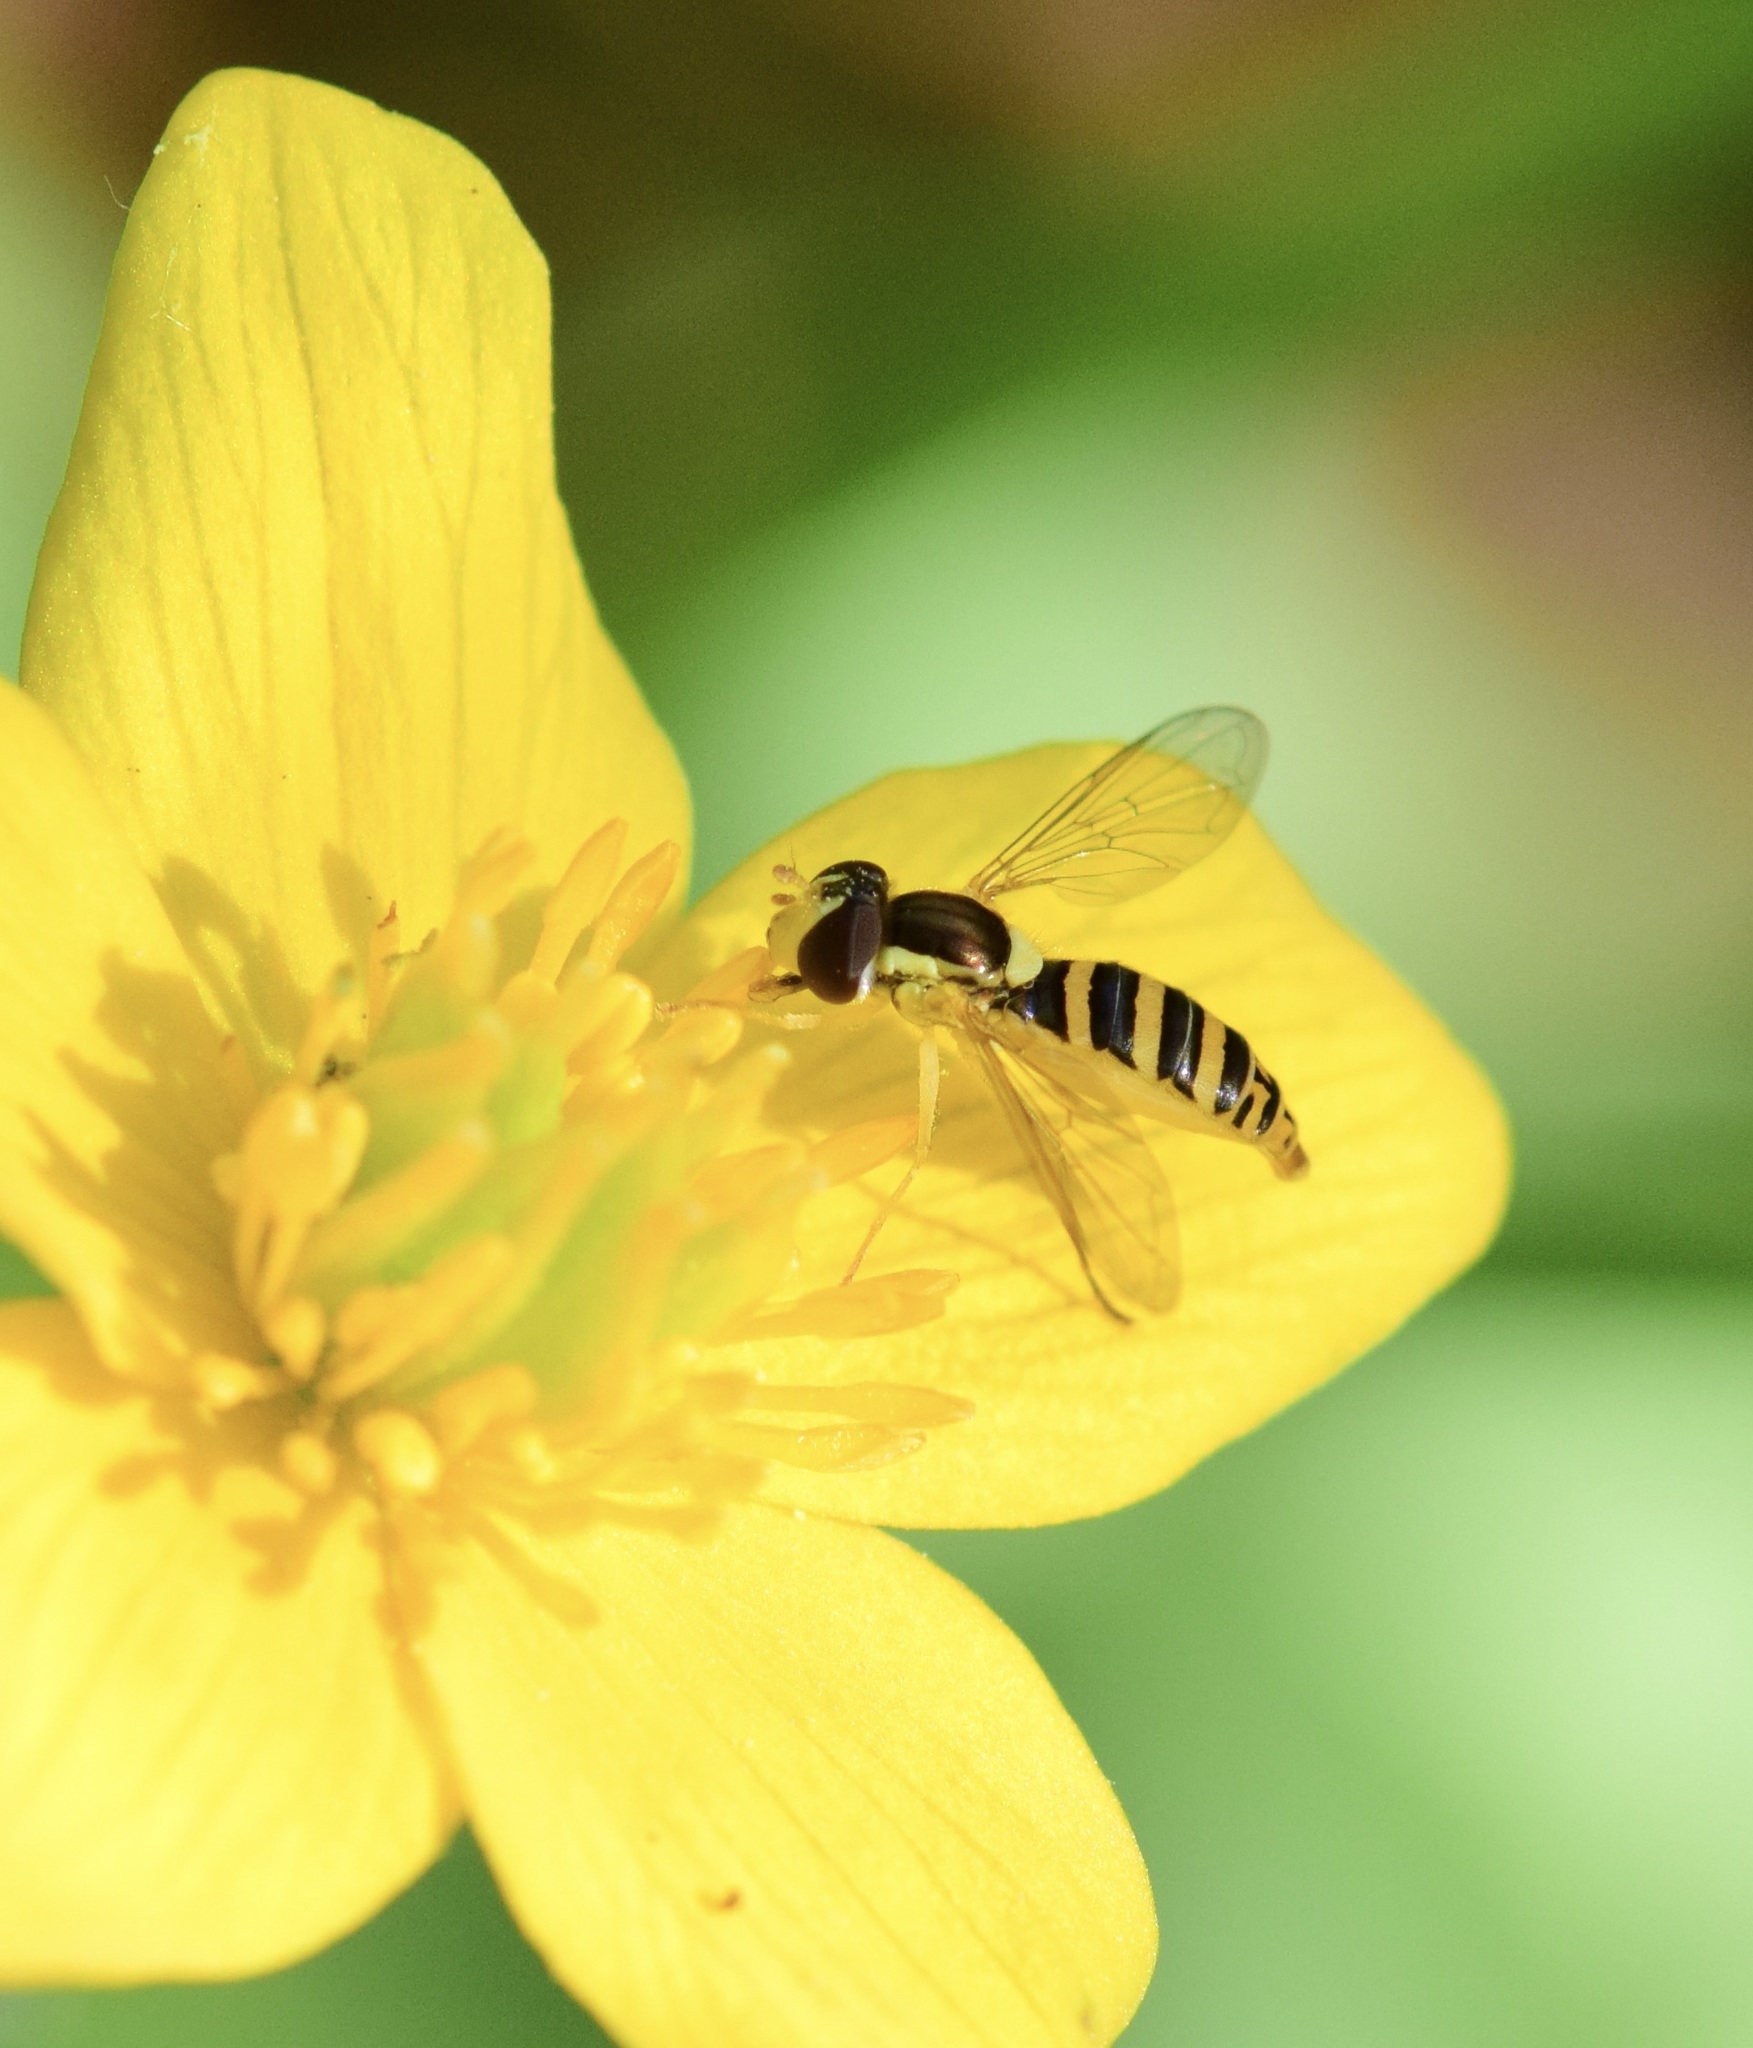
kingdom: Animalia
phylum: Arthropoda
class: Insecta
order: Diptera
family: Syrphidae
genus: Sphaerophoria
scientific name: Sphaerophoria
